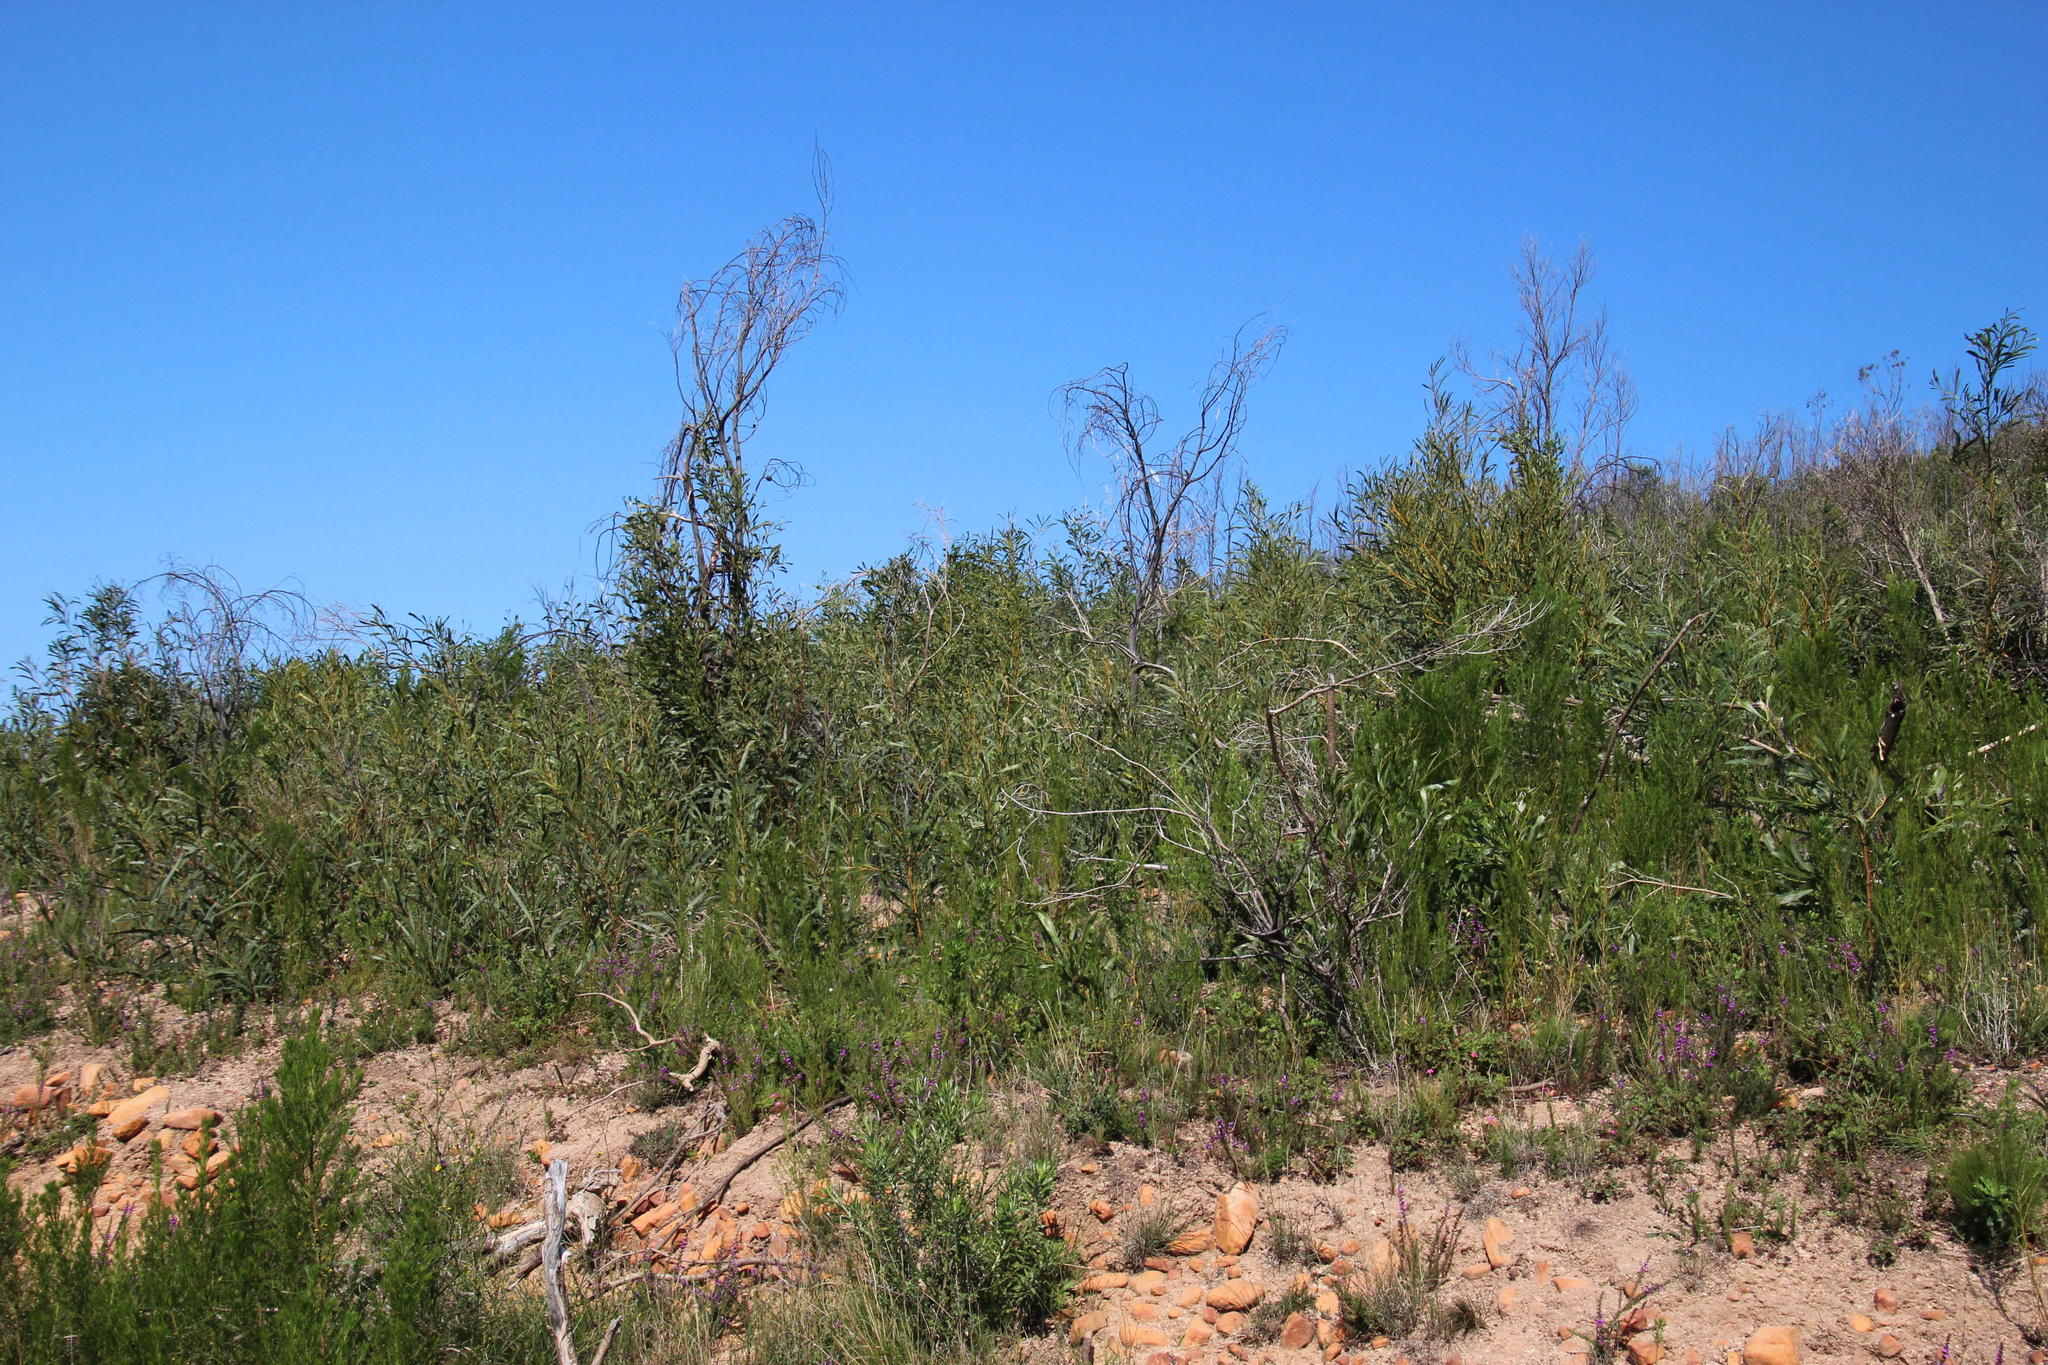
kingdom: Plantae
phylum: Tracheophyta
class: Magnoliopsida
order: Fabales
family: Fabaceae
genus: Acacia
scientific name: Acacia saligna
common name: Orange wattle
